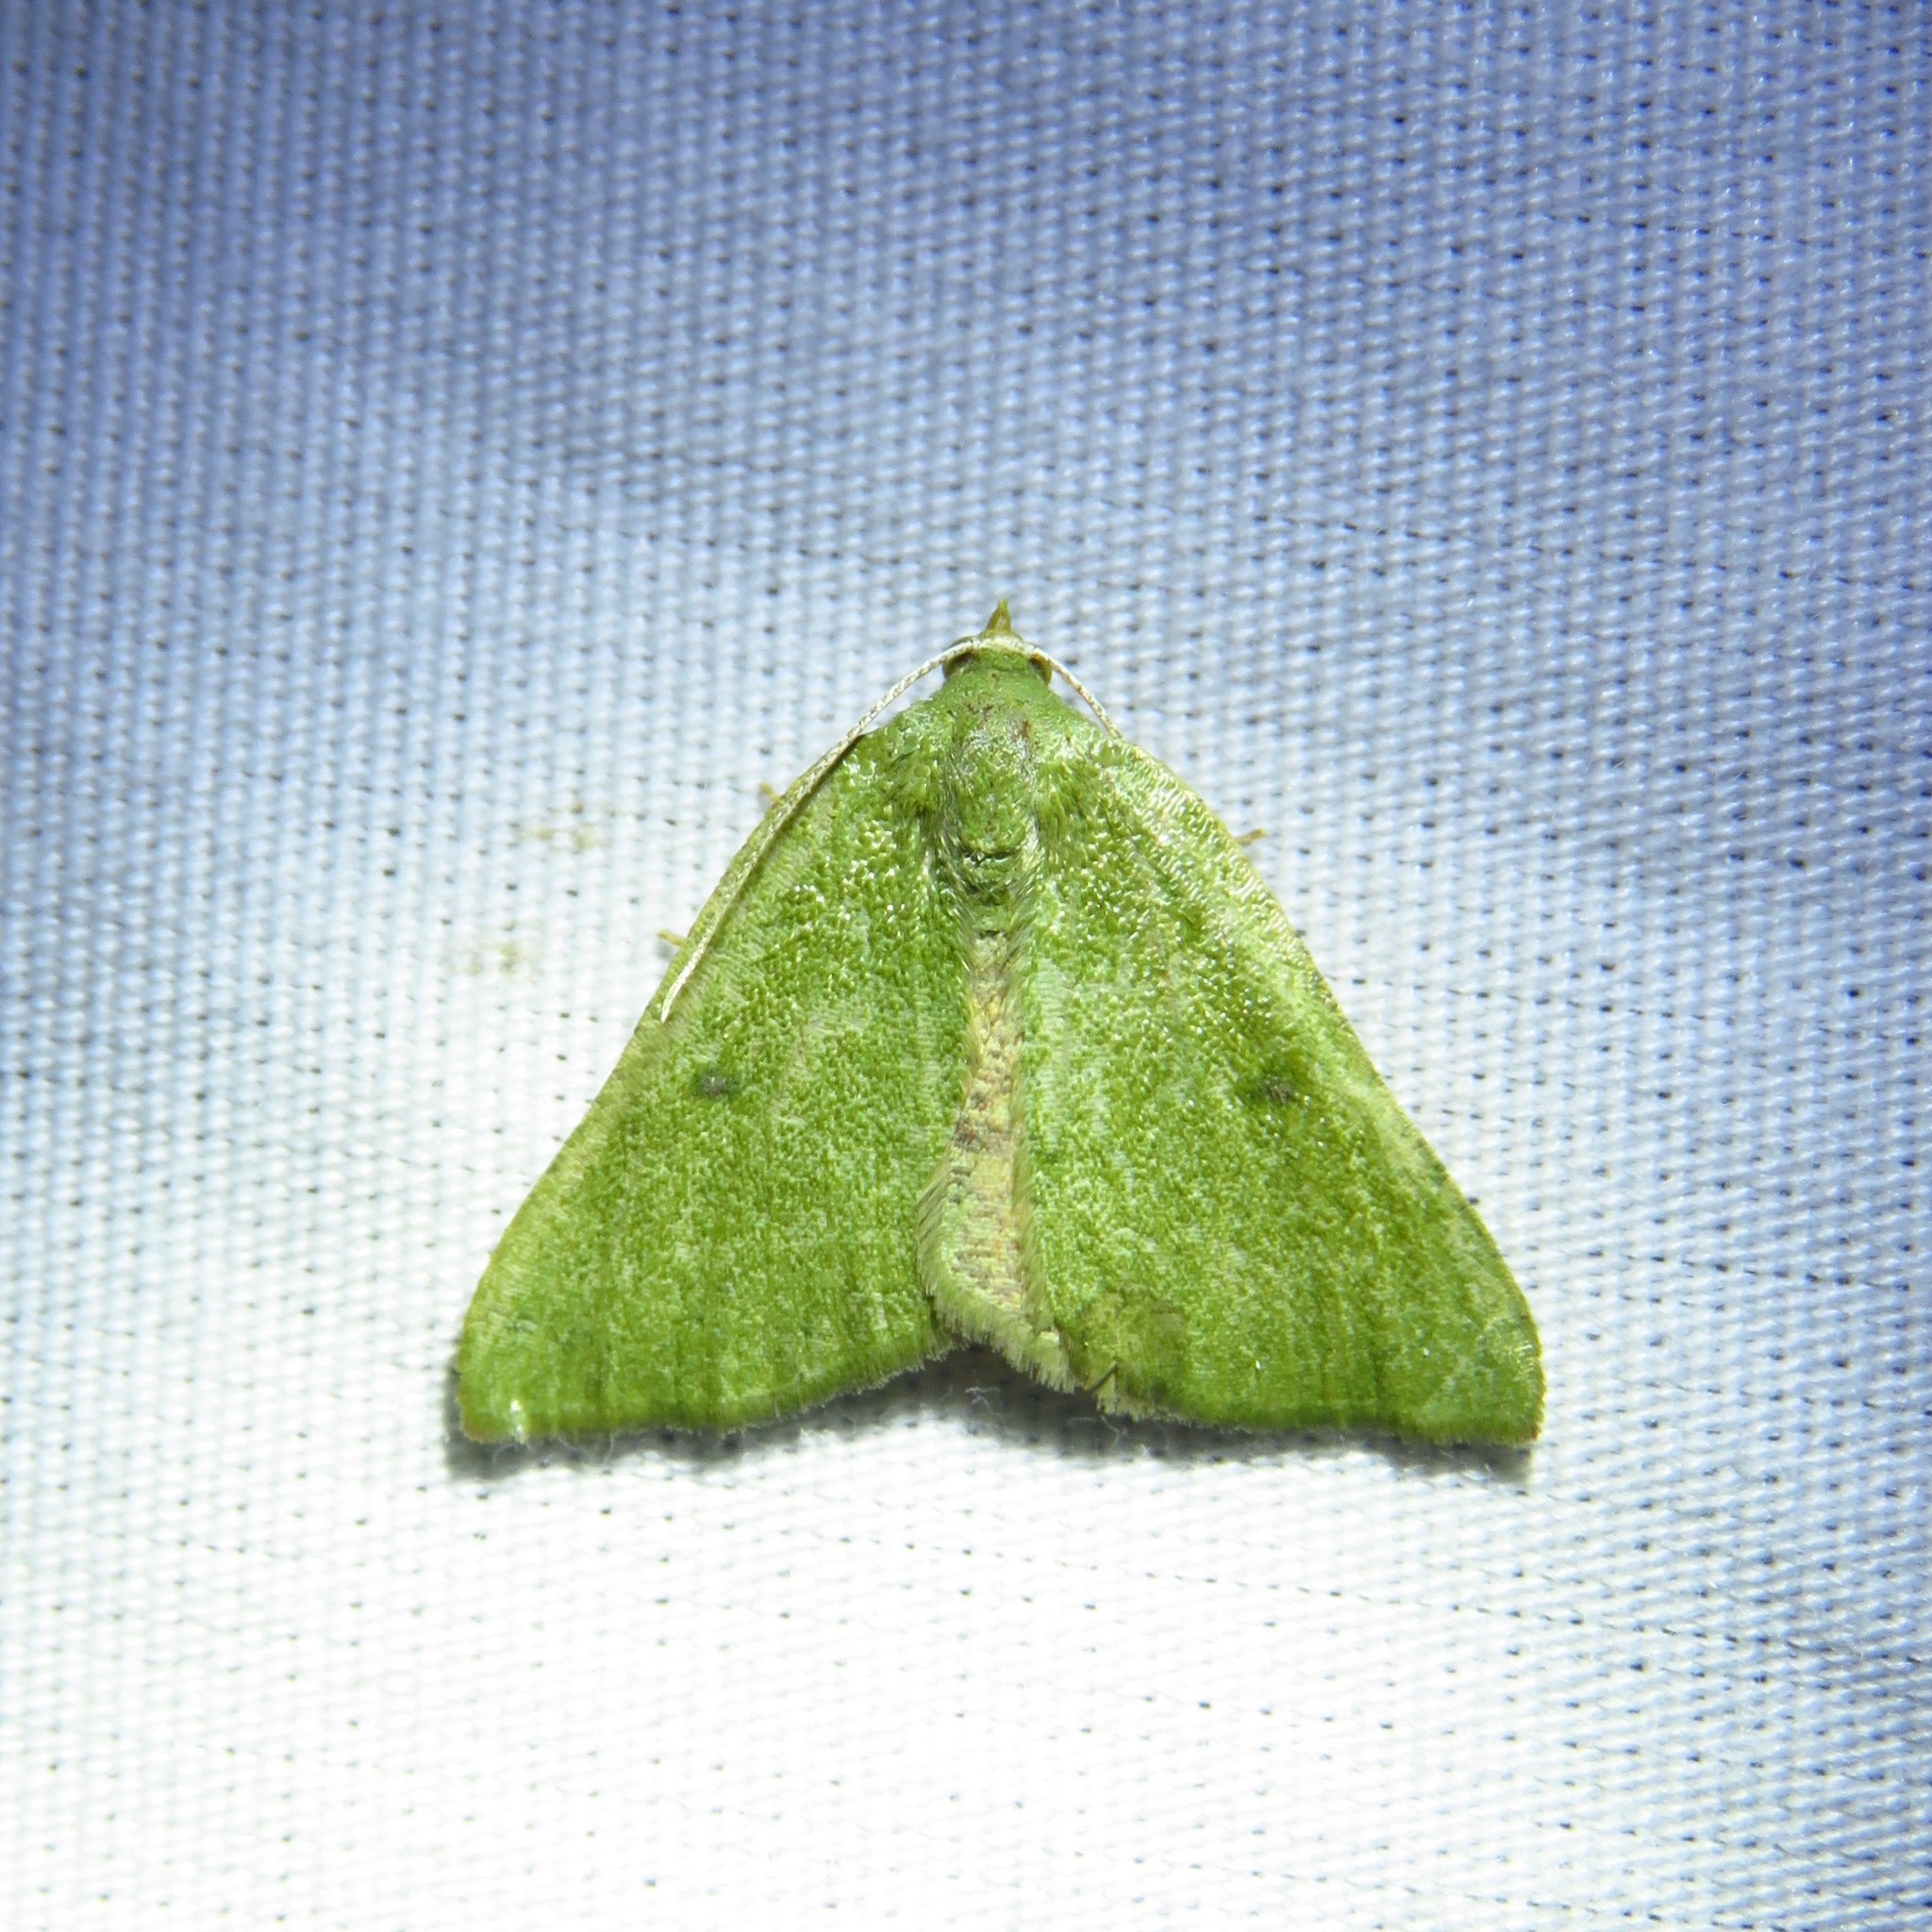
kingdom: Animalia
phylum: Arthropoda
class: Insecta
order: Lepidoptera
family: Geometridae
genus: Chloraspilates
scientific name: Chloraspilates bicoloraria
